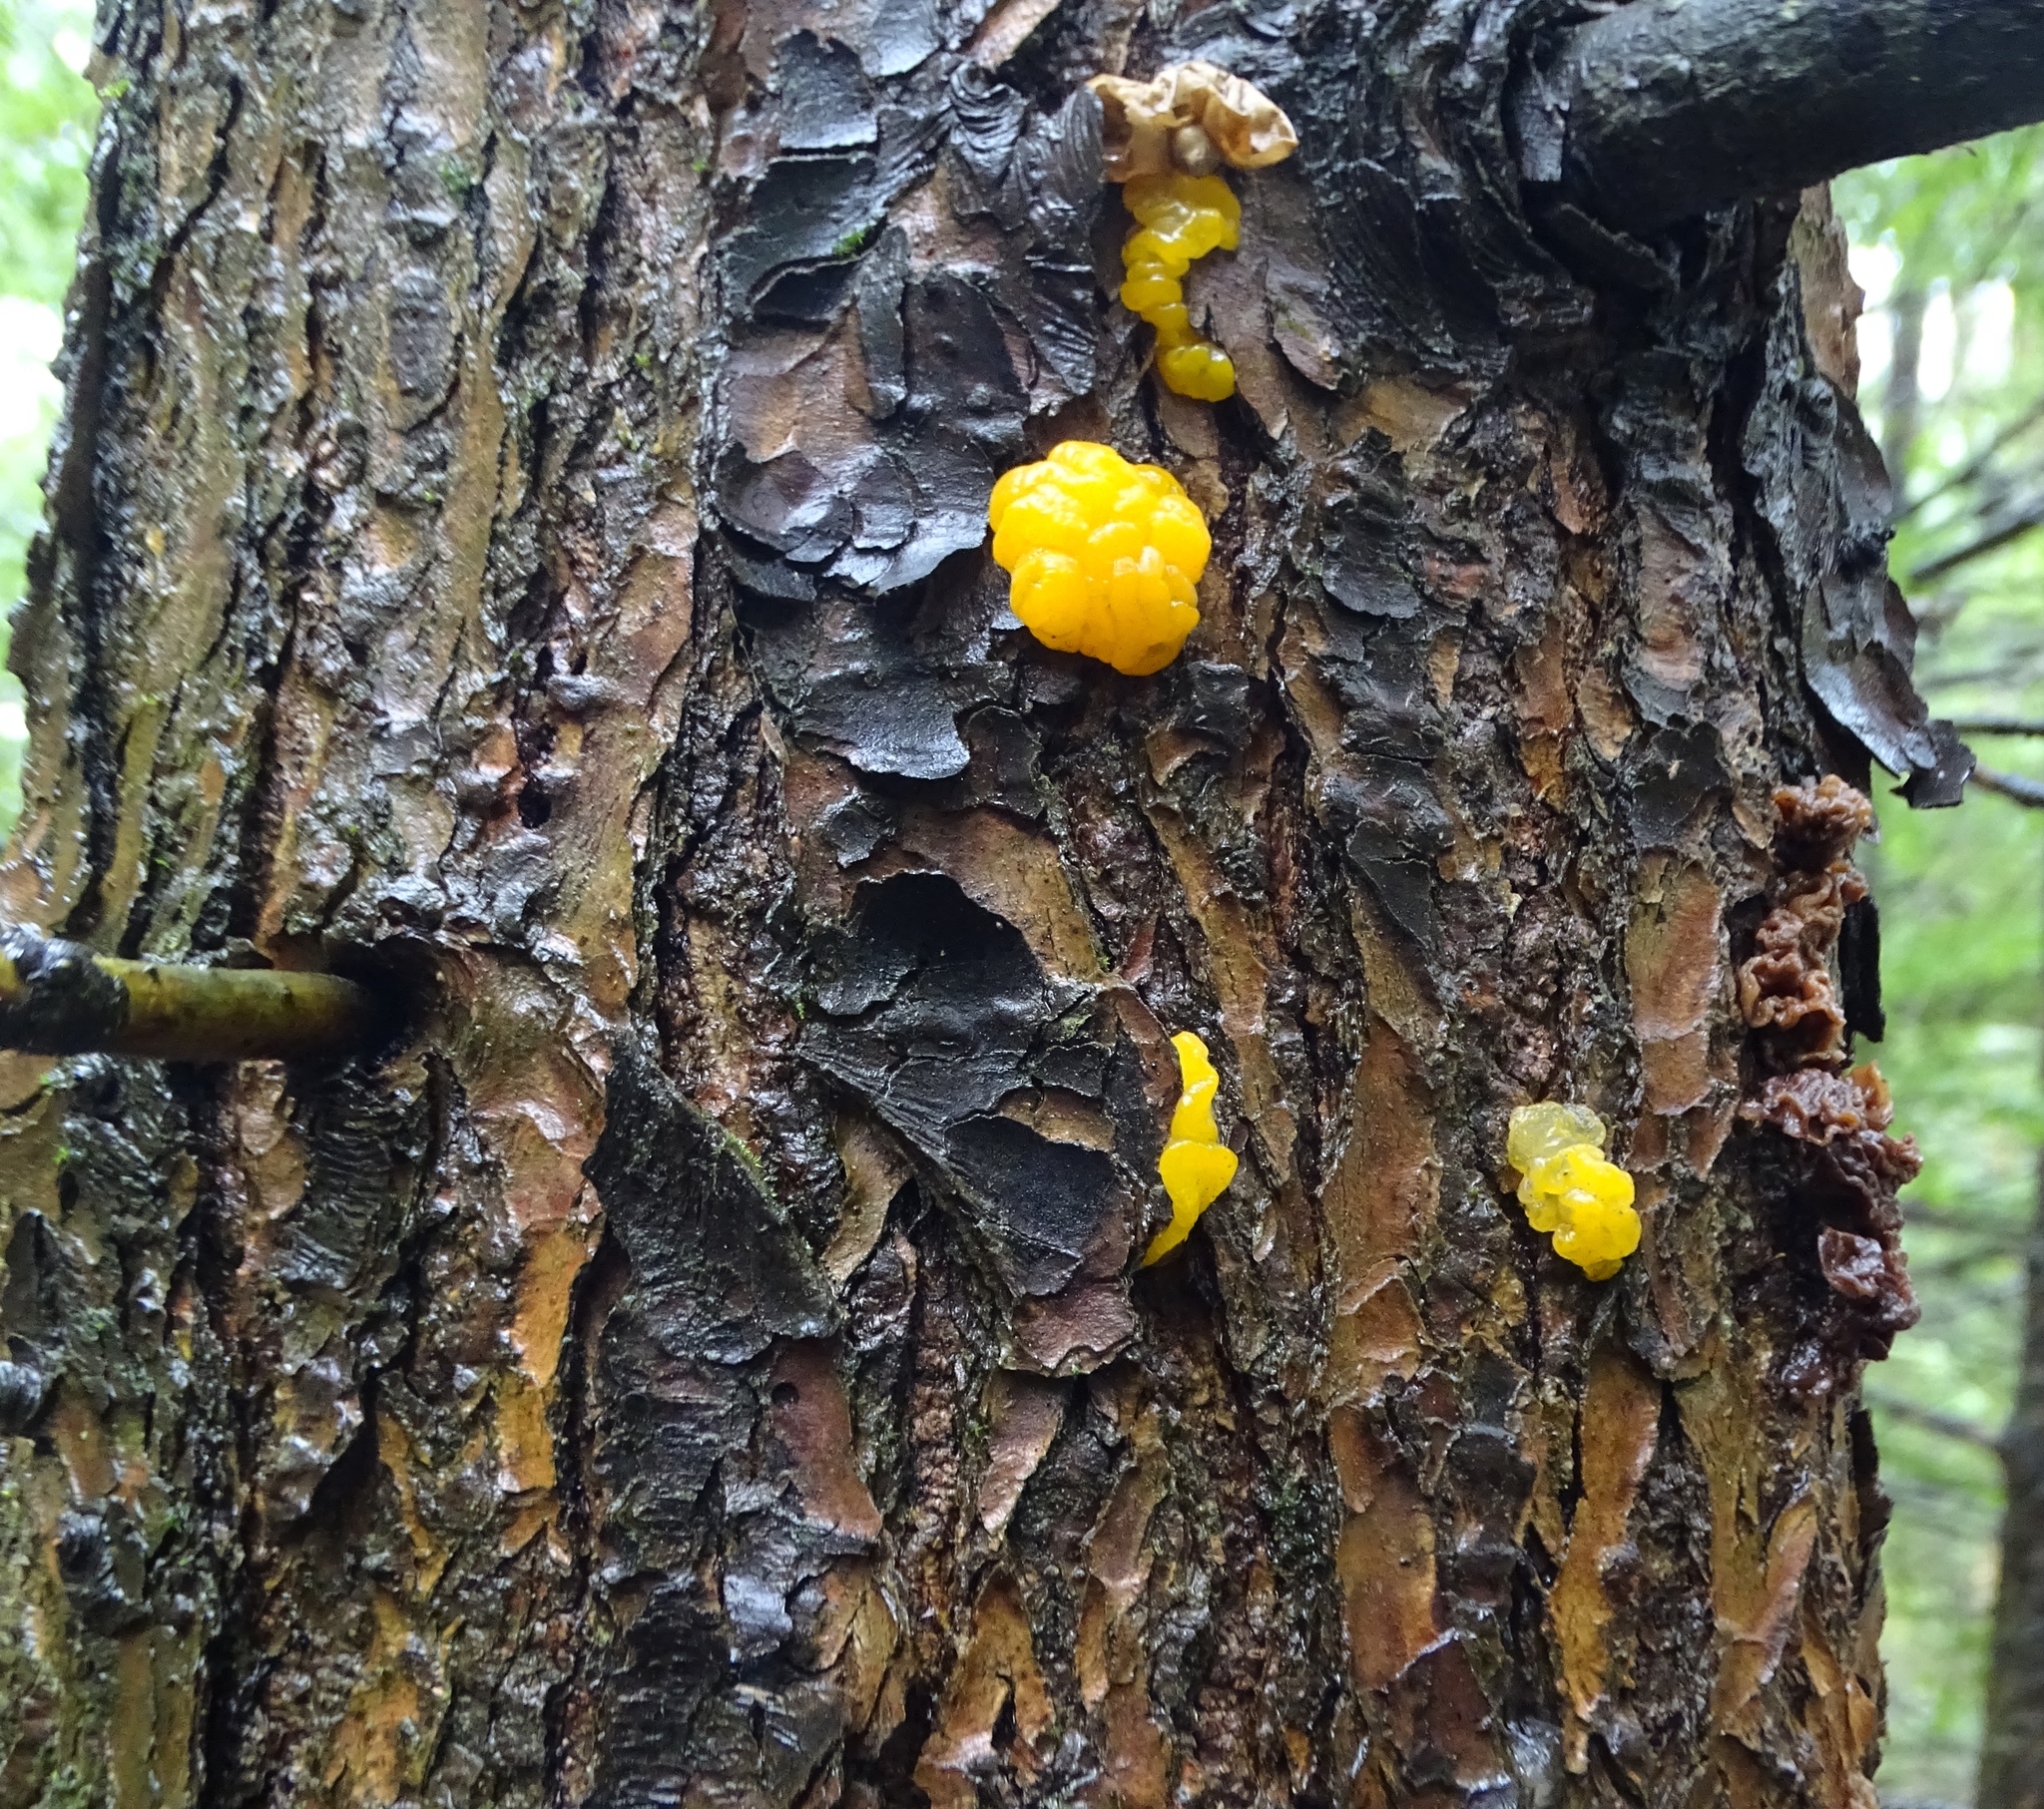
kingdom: Fungi
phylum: Basidiomycota
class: Dacrymycetes
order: Dacrymycetales
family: Dacrymycetaceae
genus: Dacrymyces
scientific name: Dacrymyces chrysospermus
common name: Orange jelly spot
